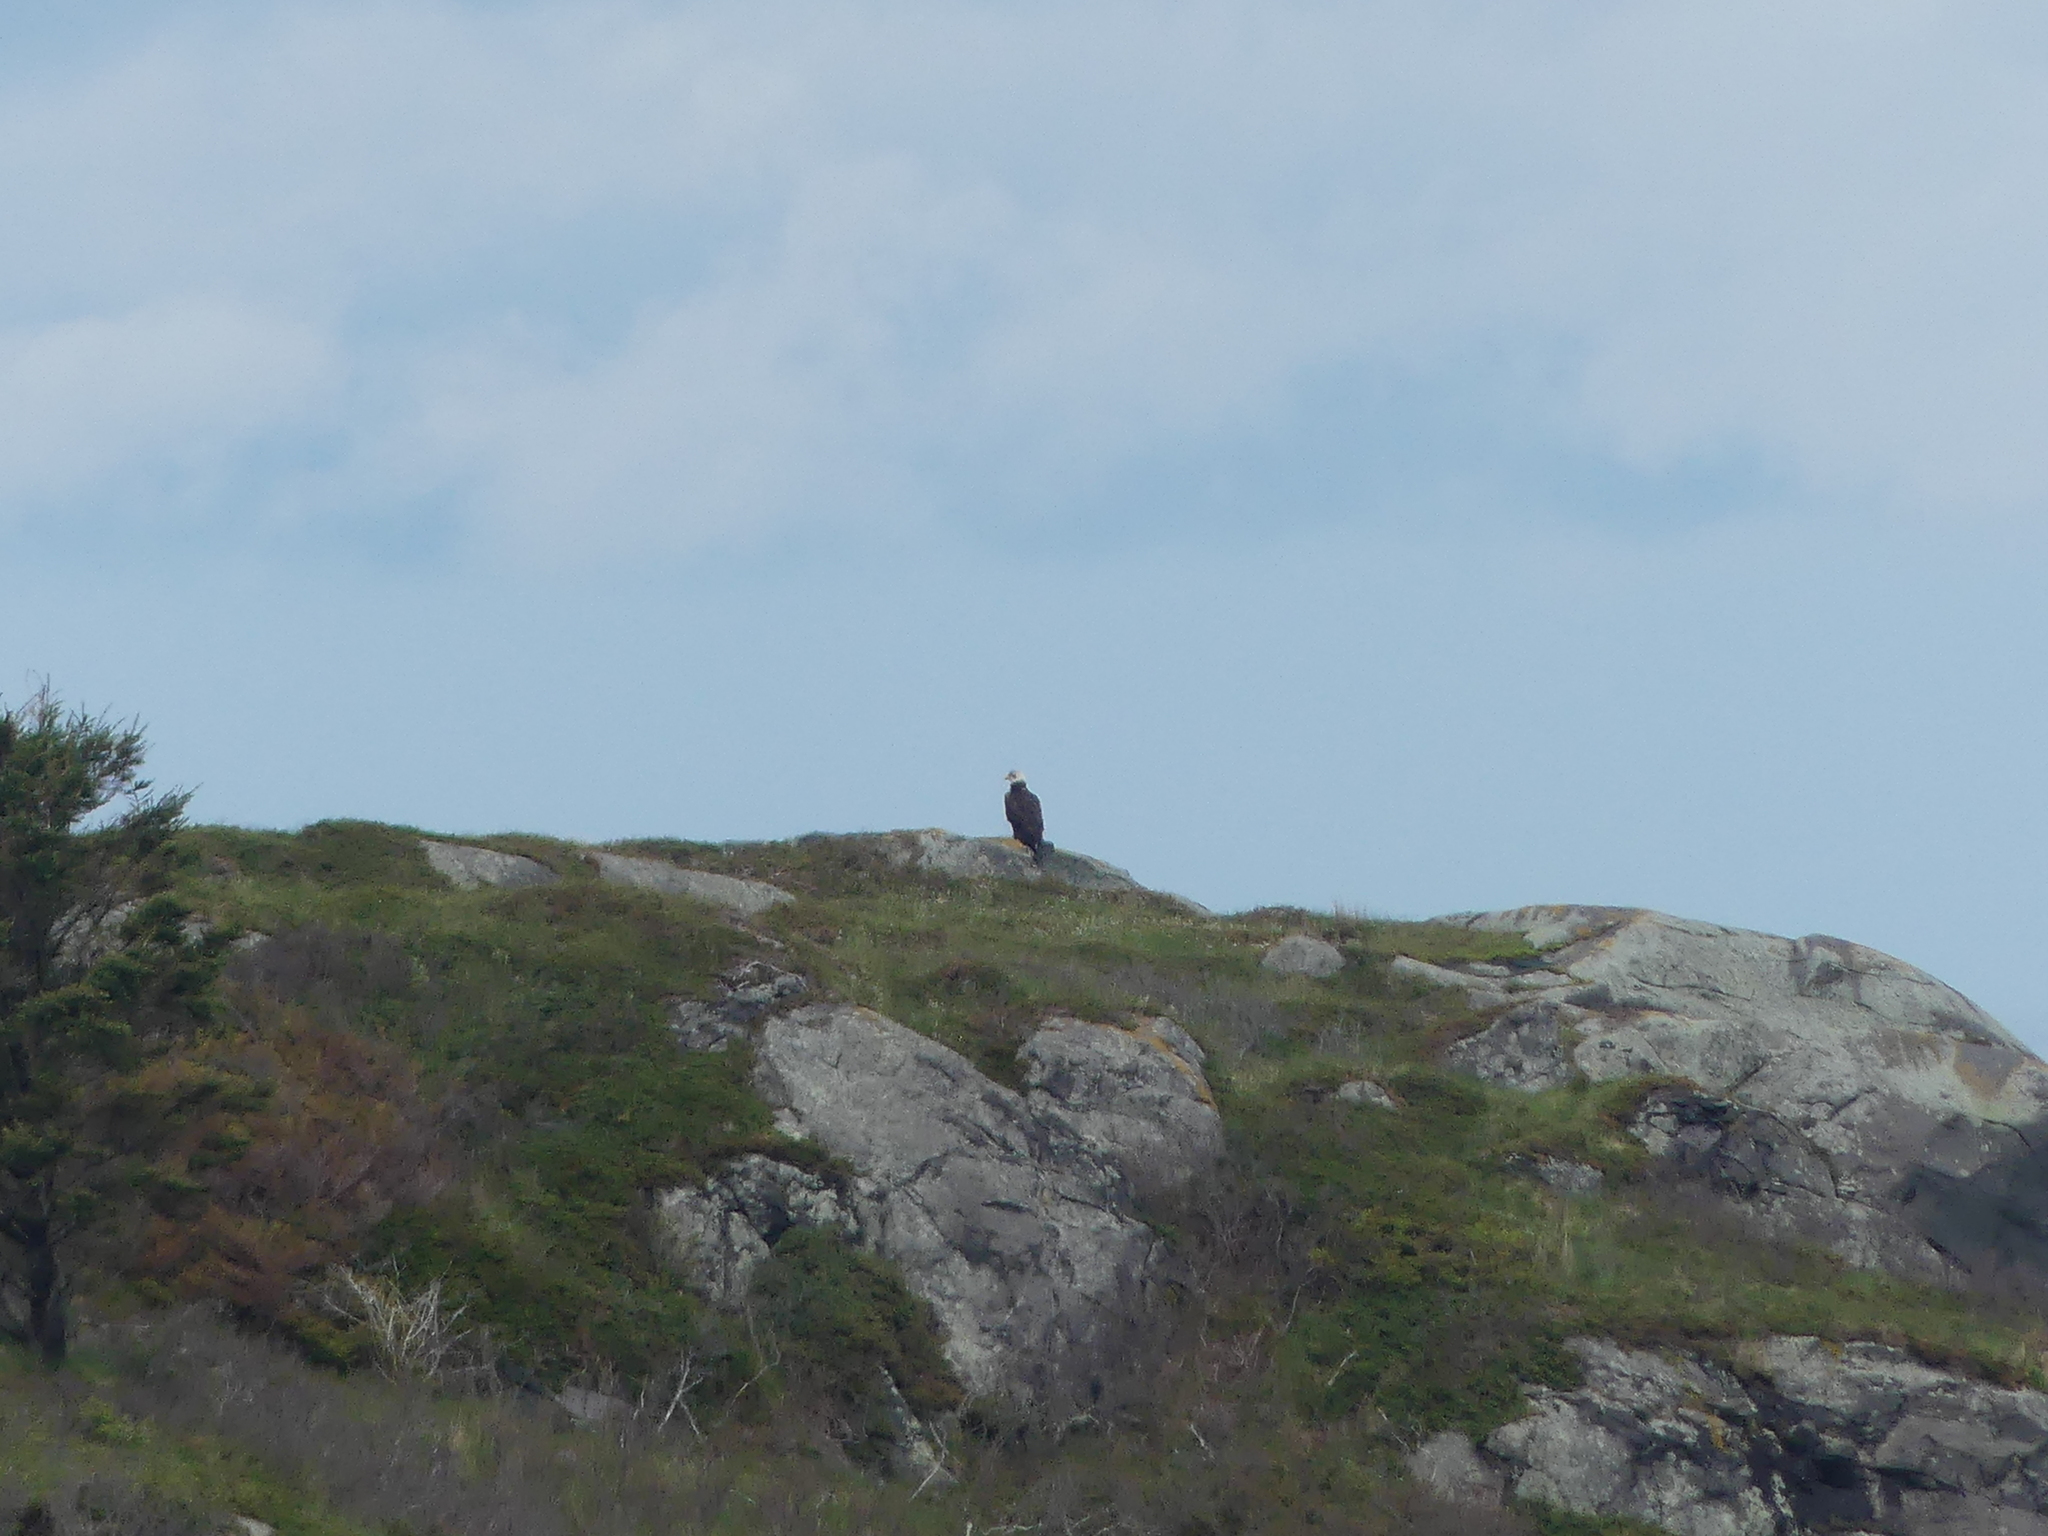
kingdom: Animalia
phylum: Chordata
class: Aves
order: Accipitriformes
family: Accipitridae
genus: Haliaeetus
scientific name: Haliaeetus leucocephalus
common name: Bald eagle
